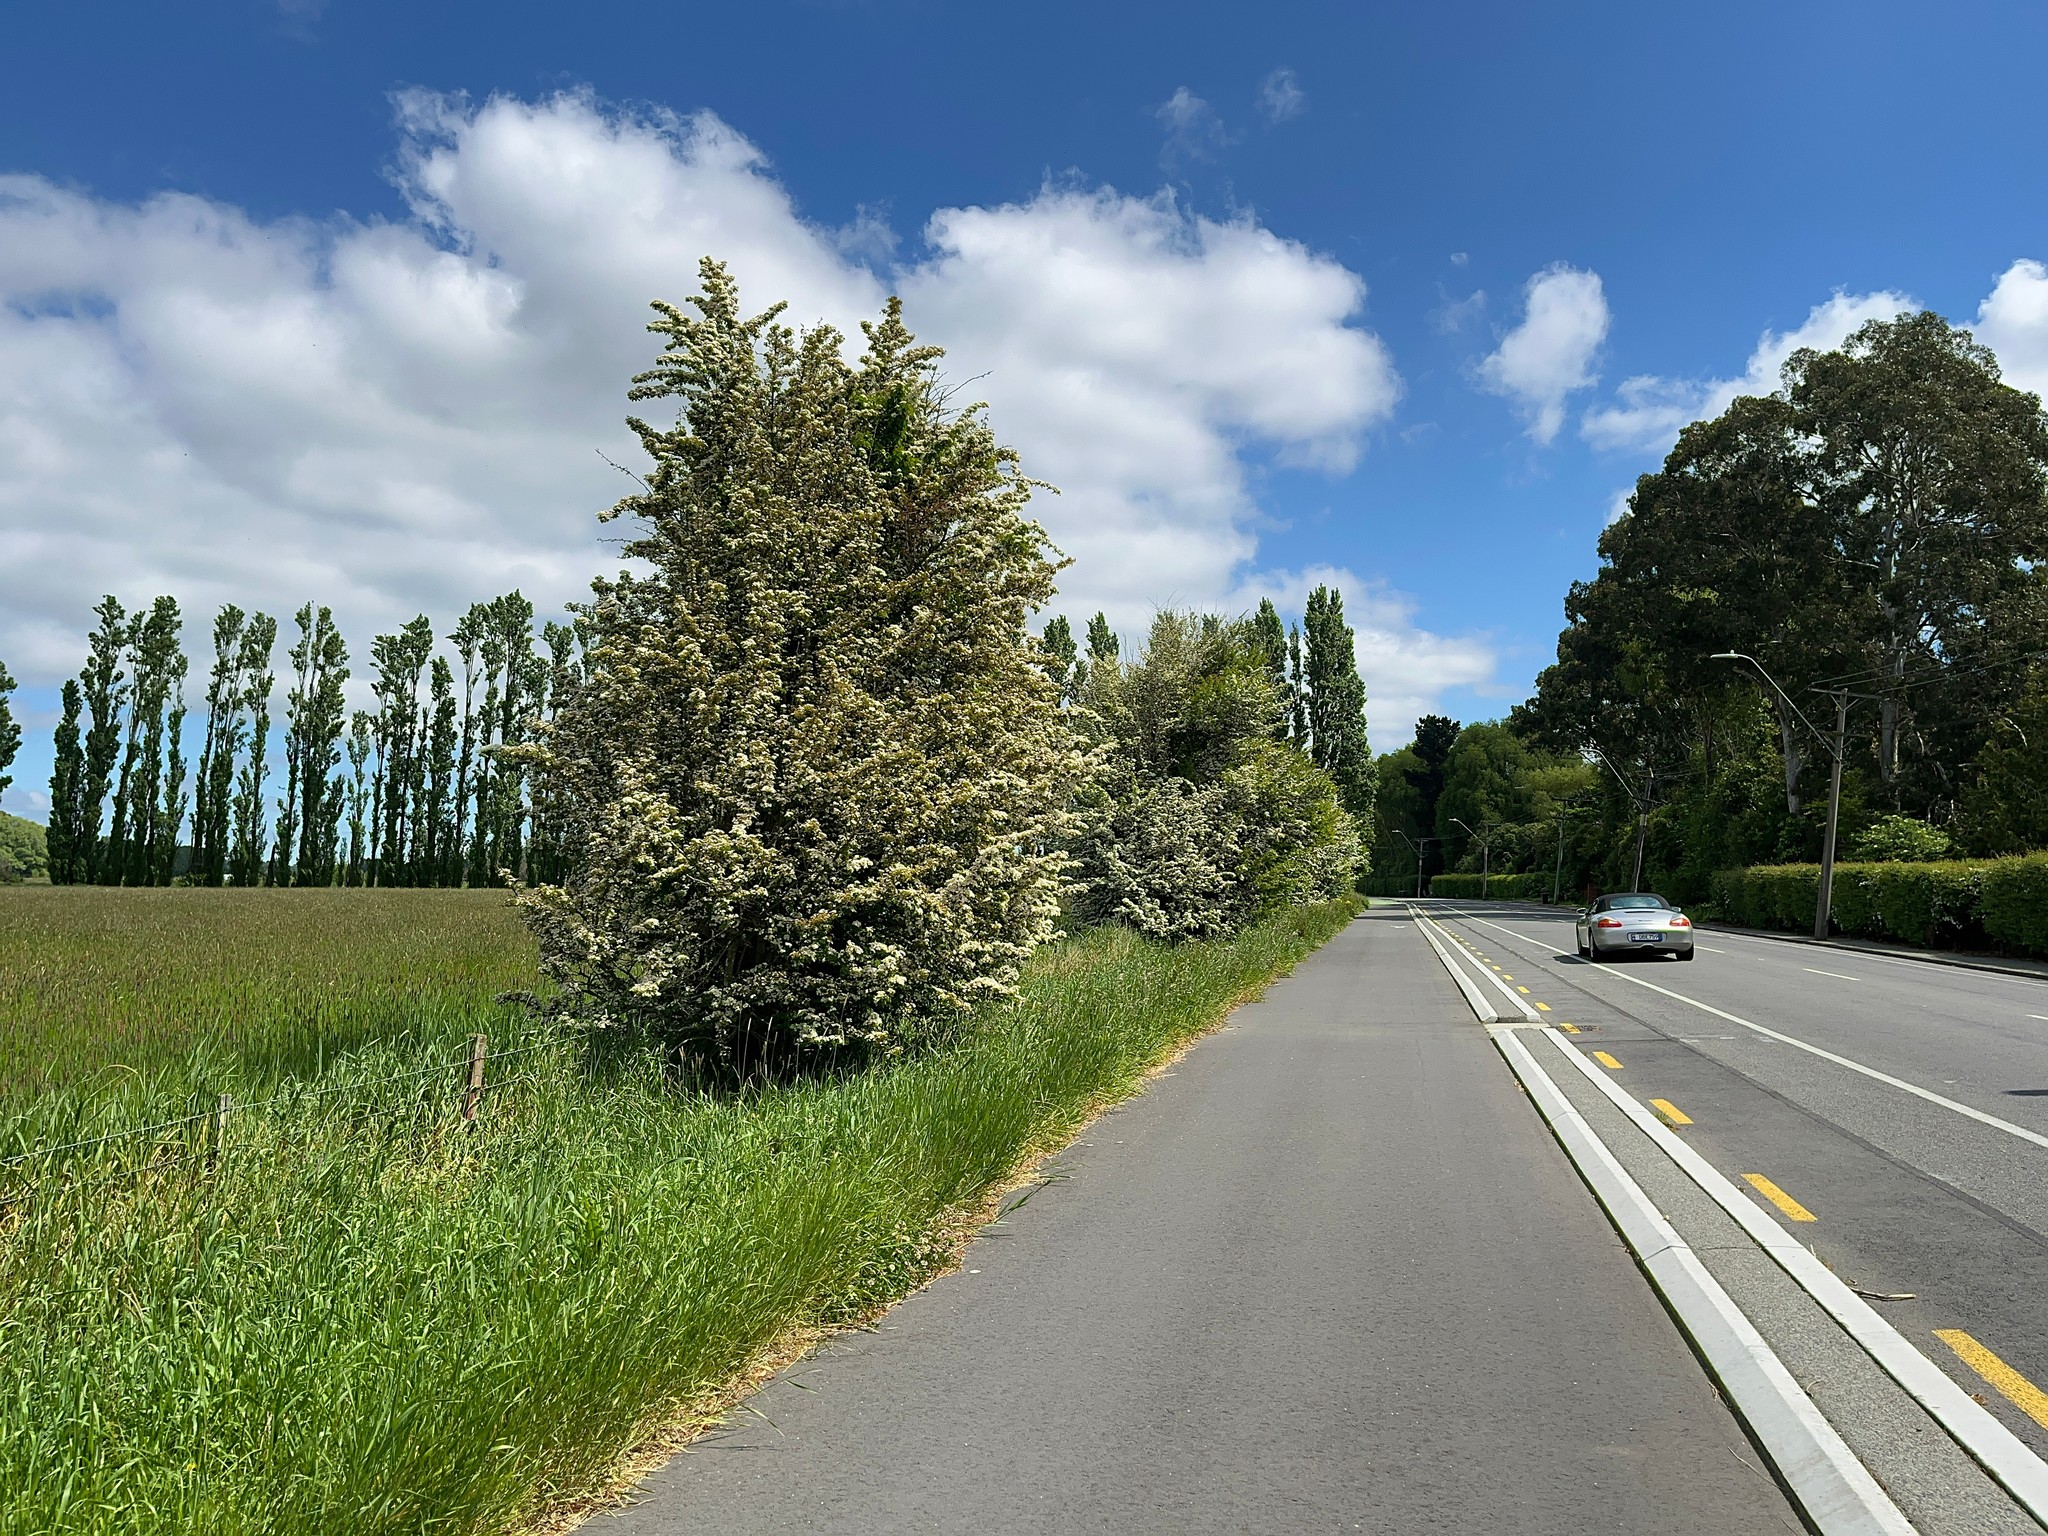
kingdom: Plantae
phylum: Tracheophyta
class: Magnoliopsida
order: Rosales
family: Rosaceae
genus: Crataegus
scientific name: Crataegus monogyna
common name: Hawthorn
